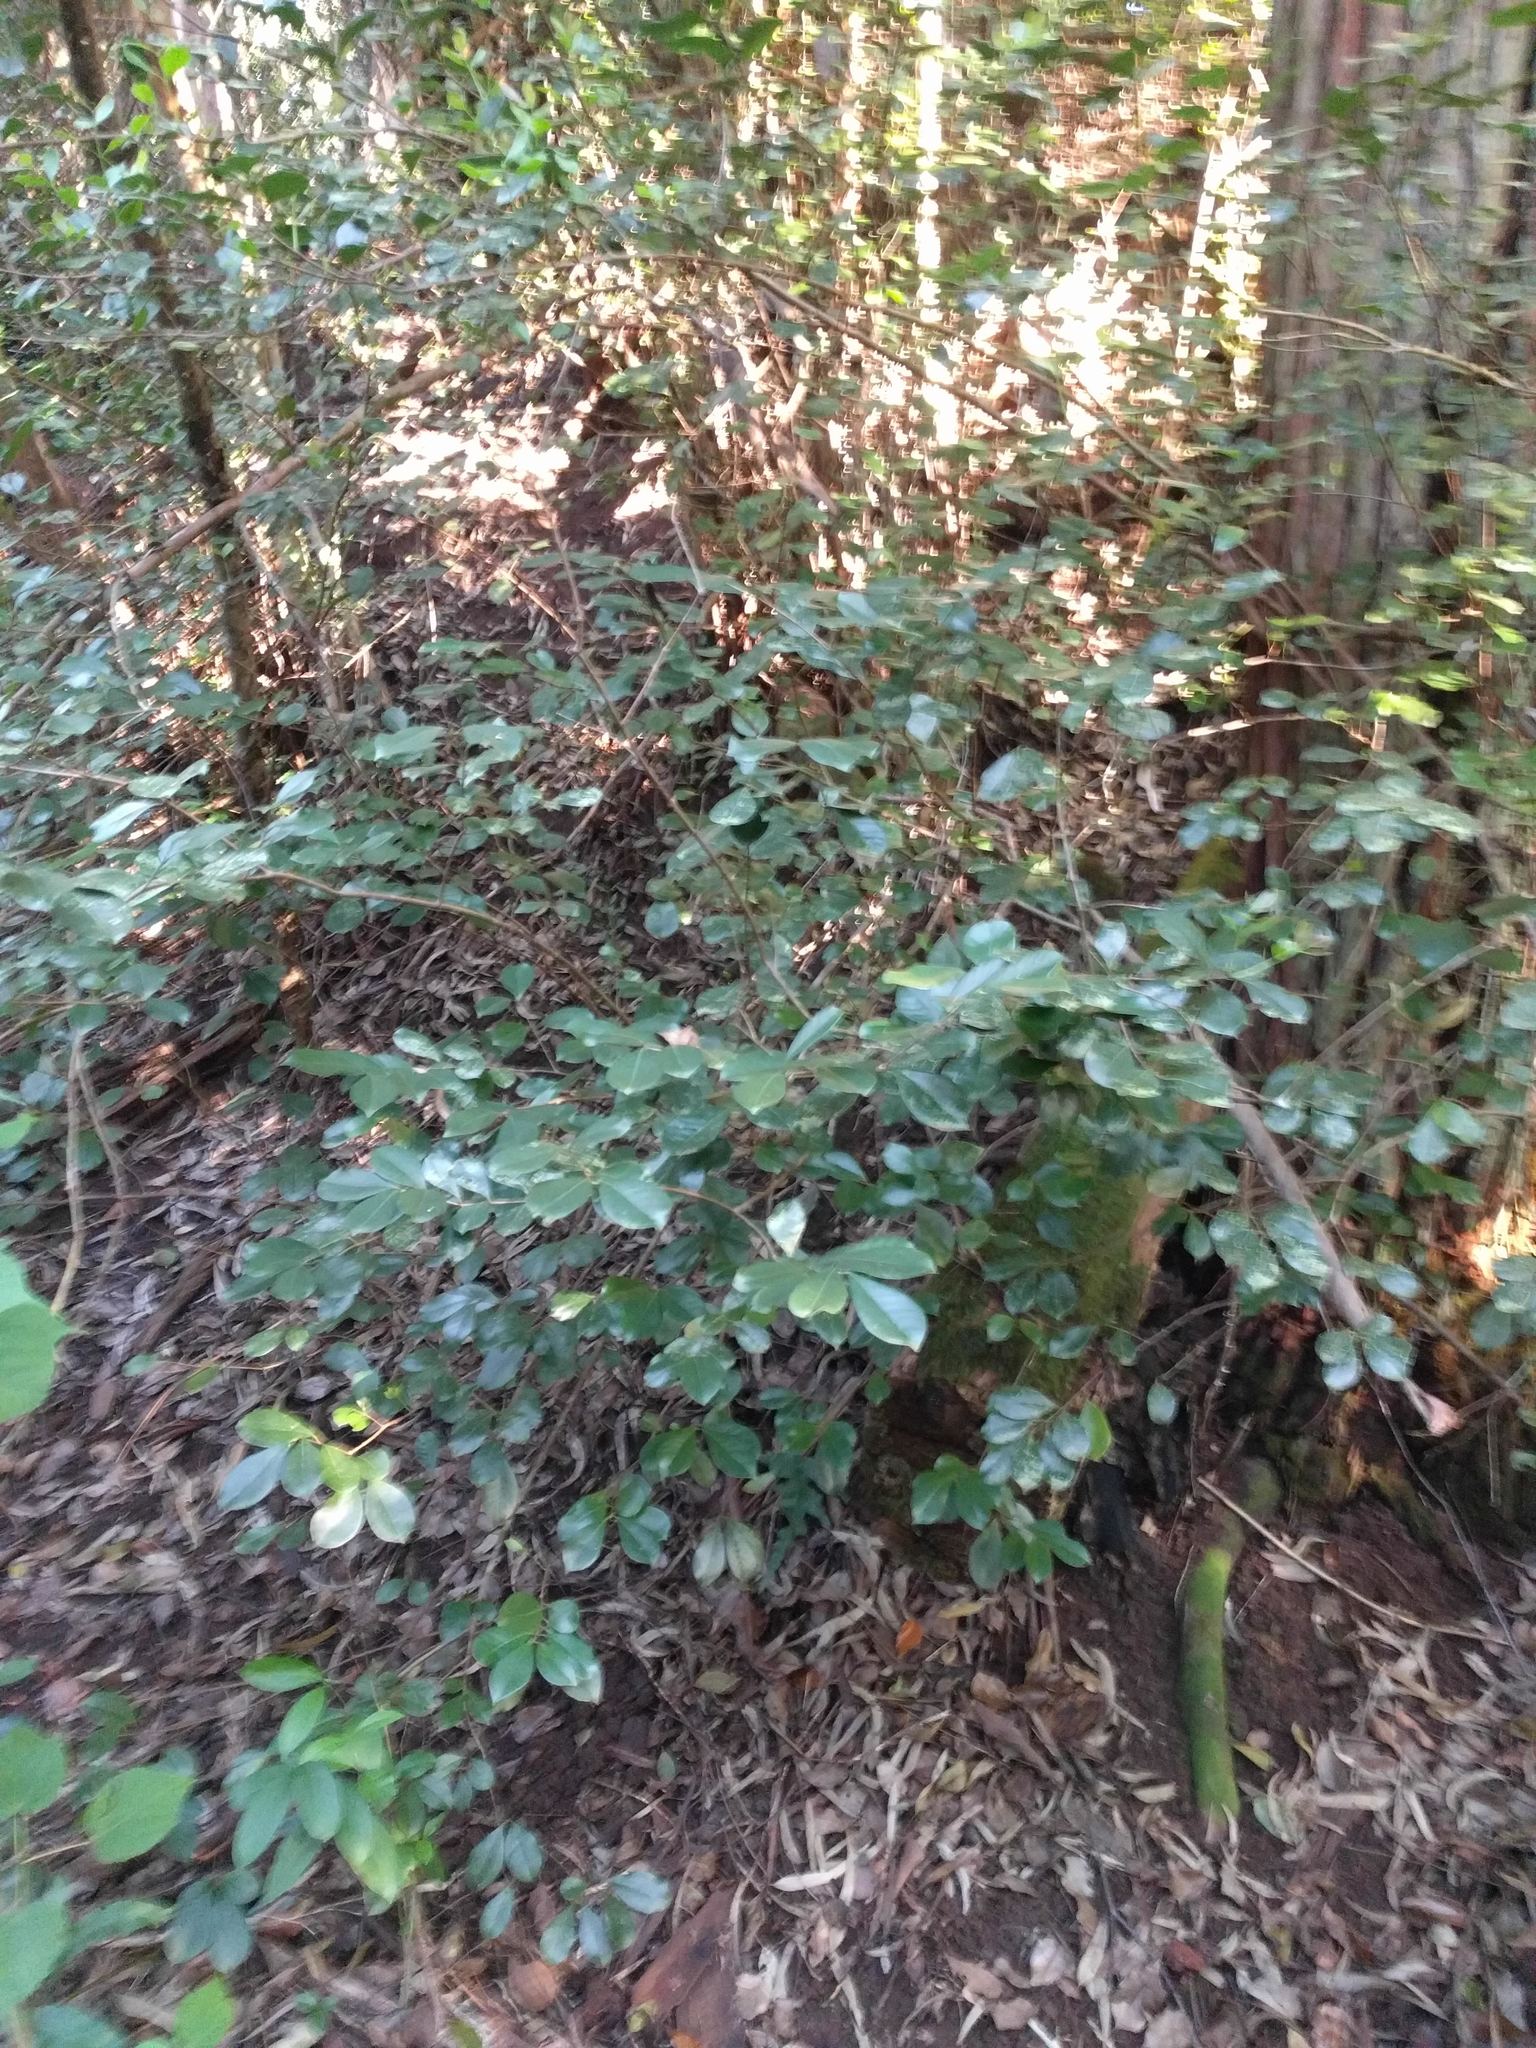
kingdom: Plantae
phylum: Tracheophyta
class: Magnoliopsida
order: Myrtales
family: Myrtaceae
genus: Psidium
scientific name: Psidium cattleianum
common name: Strawberry guava
